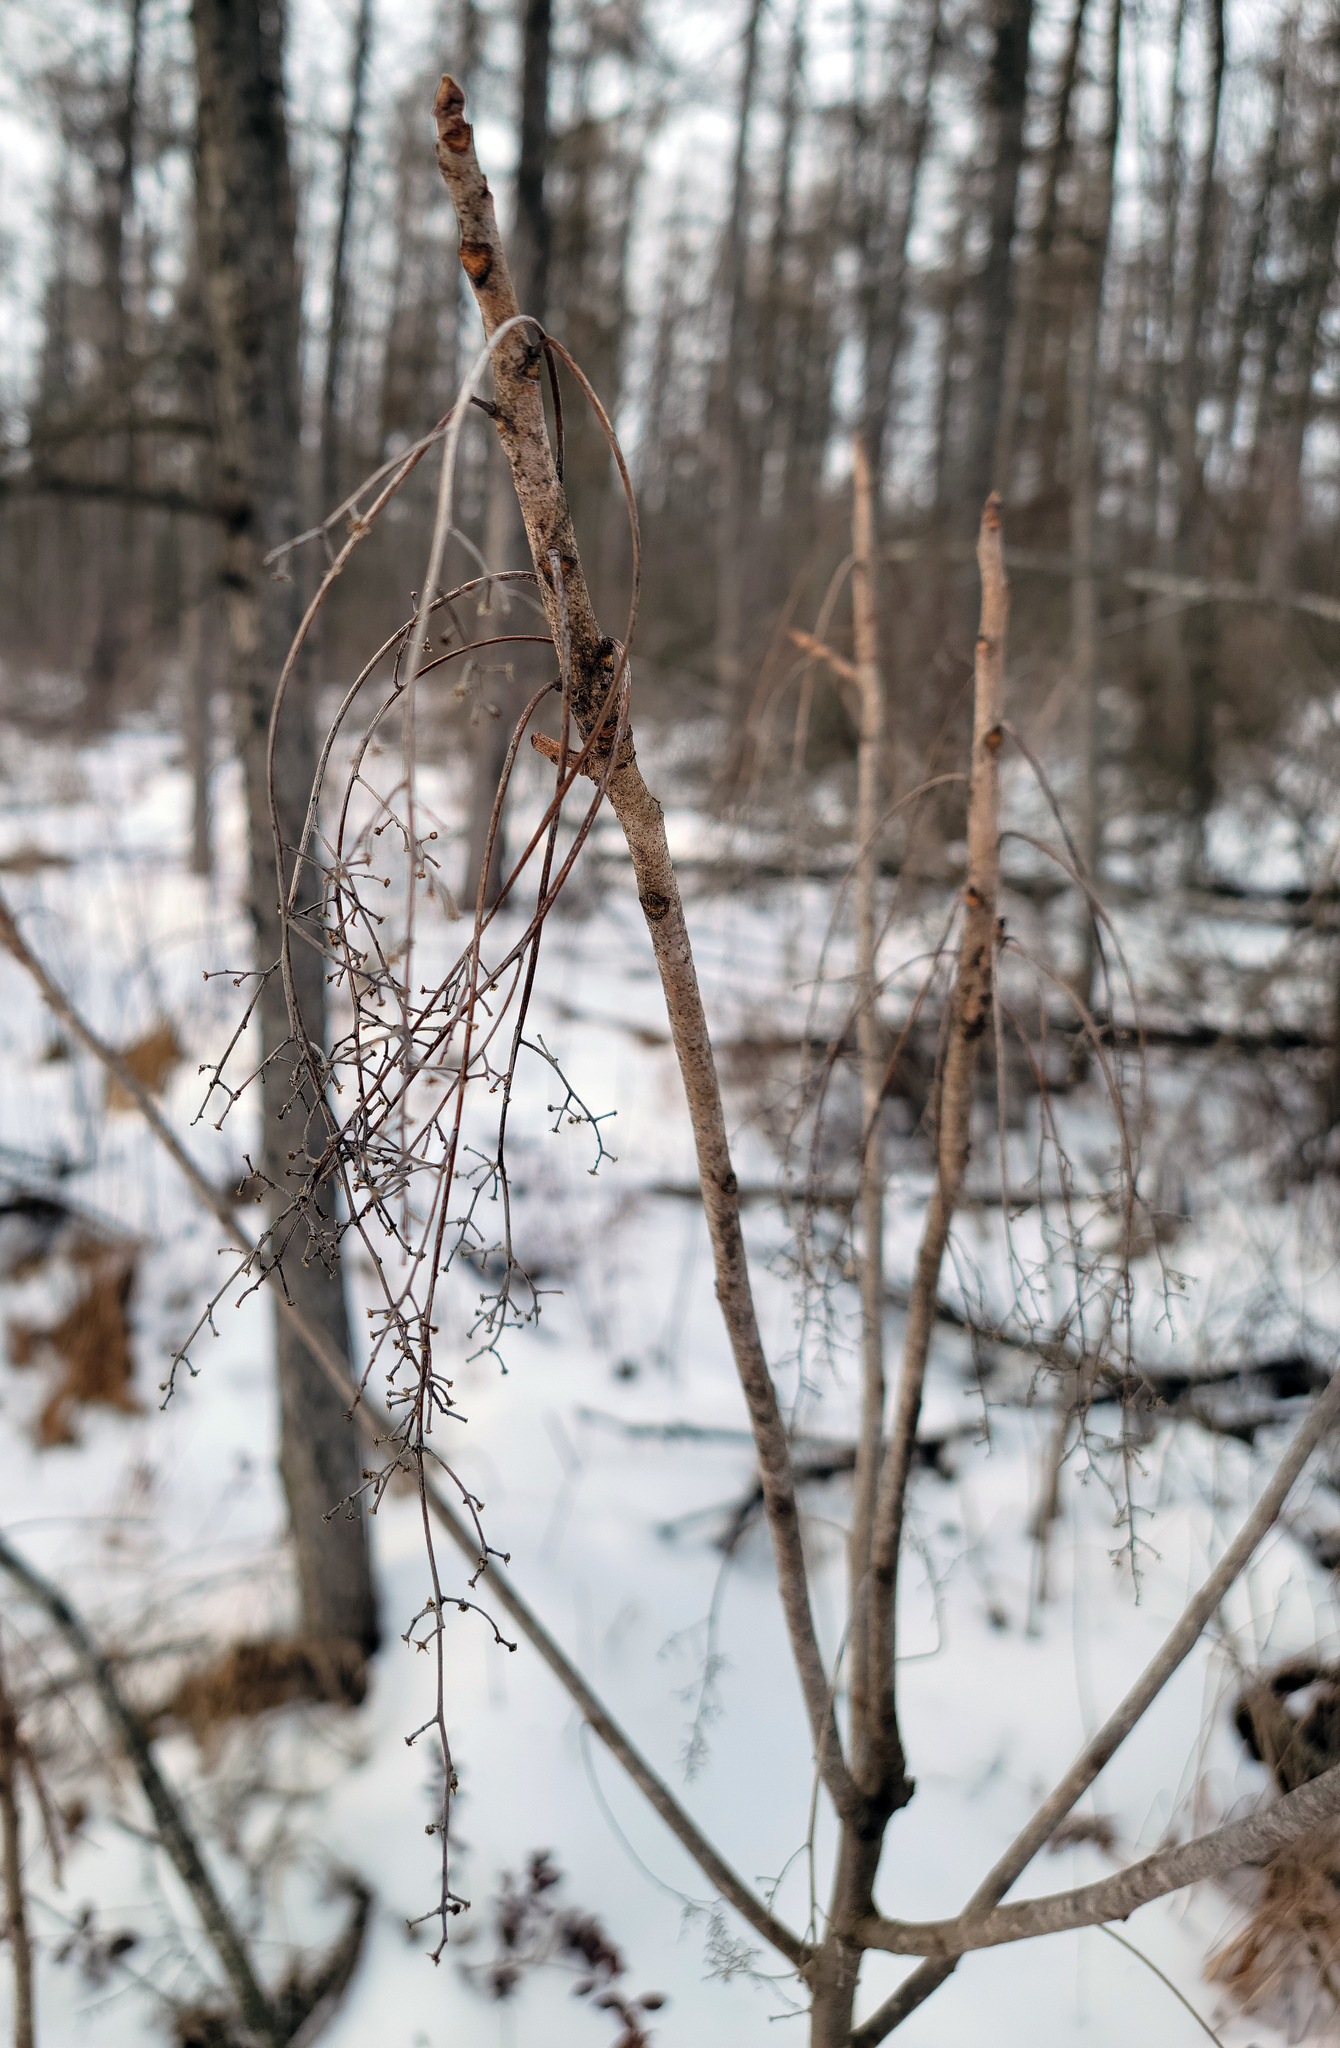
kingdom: Plantae
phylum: Tracheophyta
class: Magnoliopsida
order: Sapindales
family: Anacardiaceae
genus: Toxicodendron
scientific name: Toxicodendron vernix
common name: Poison sumac
